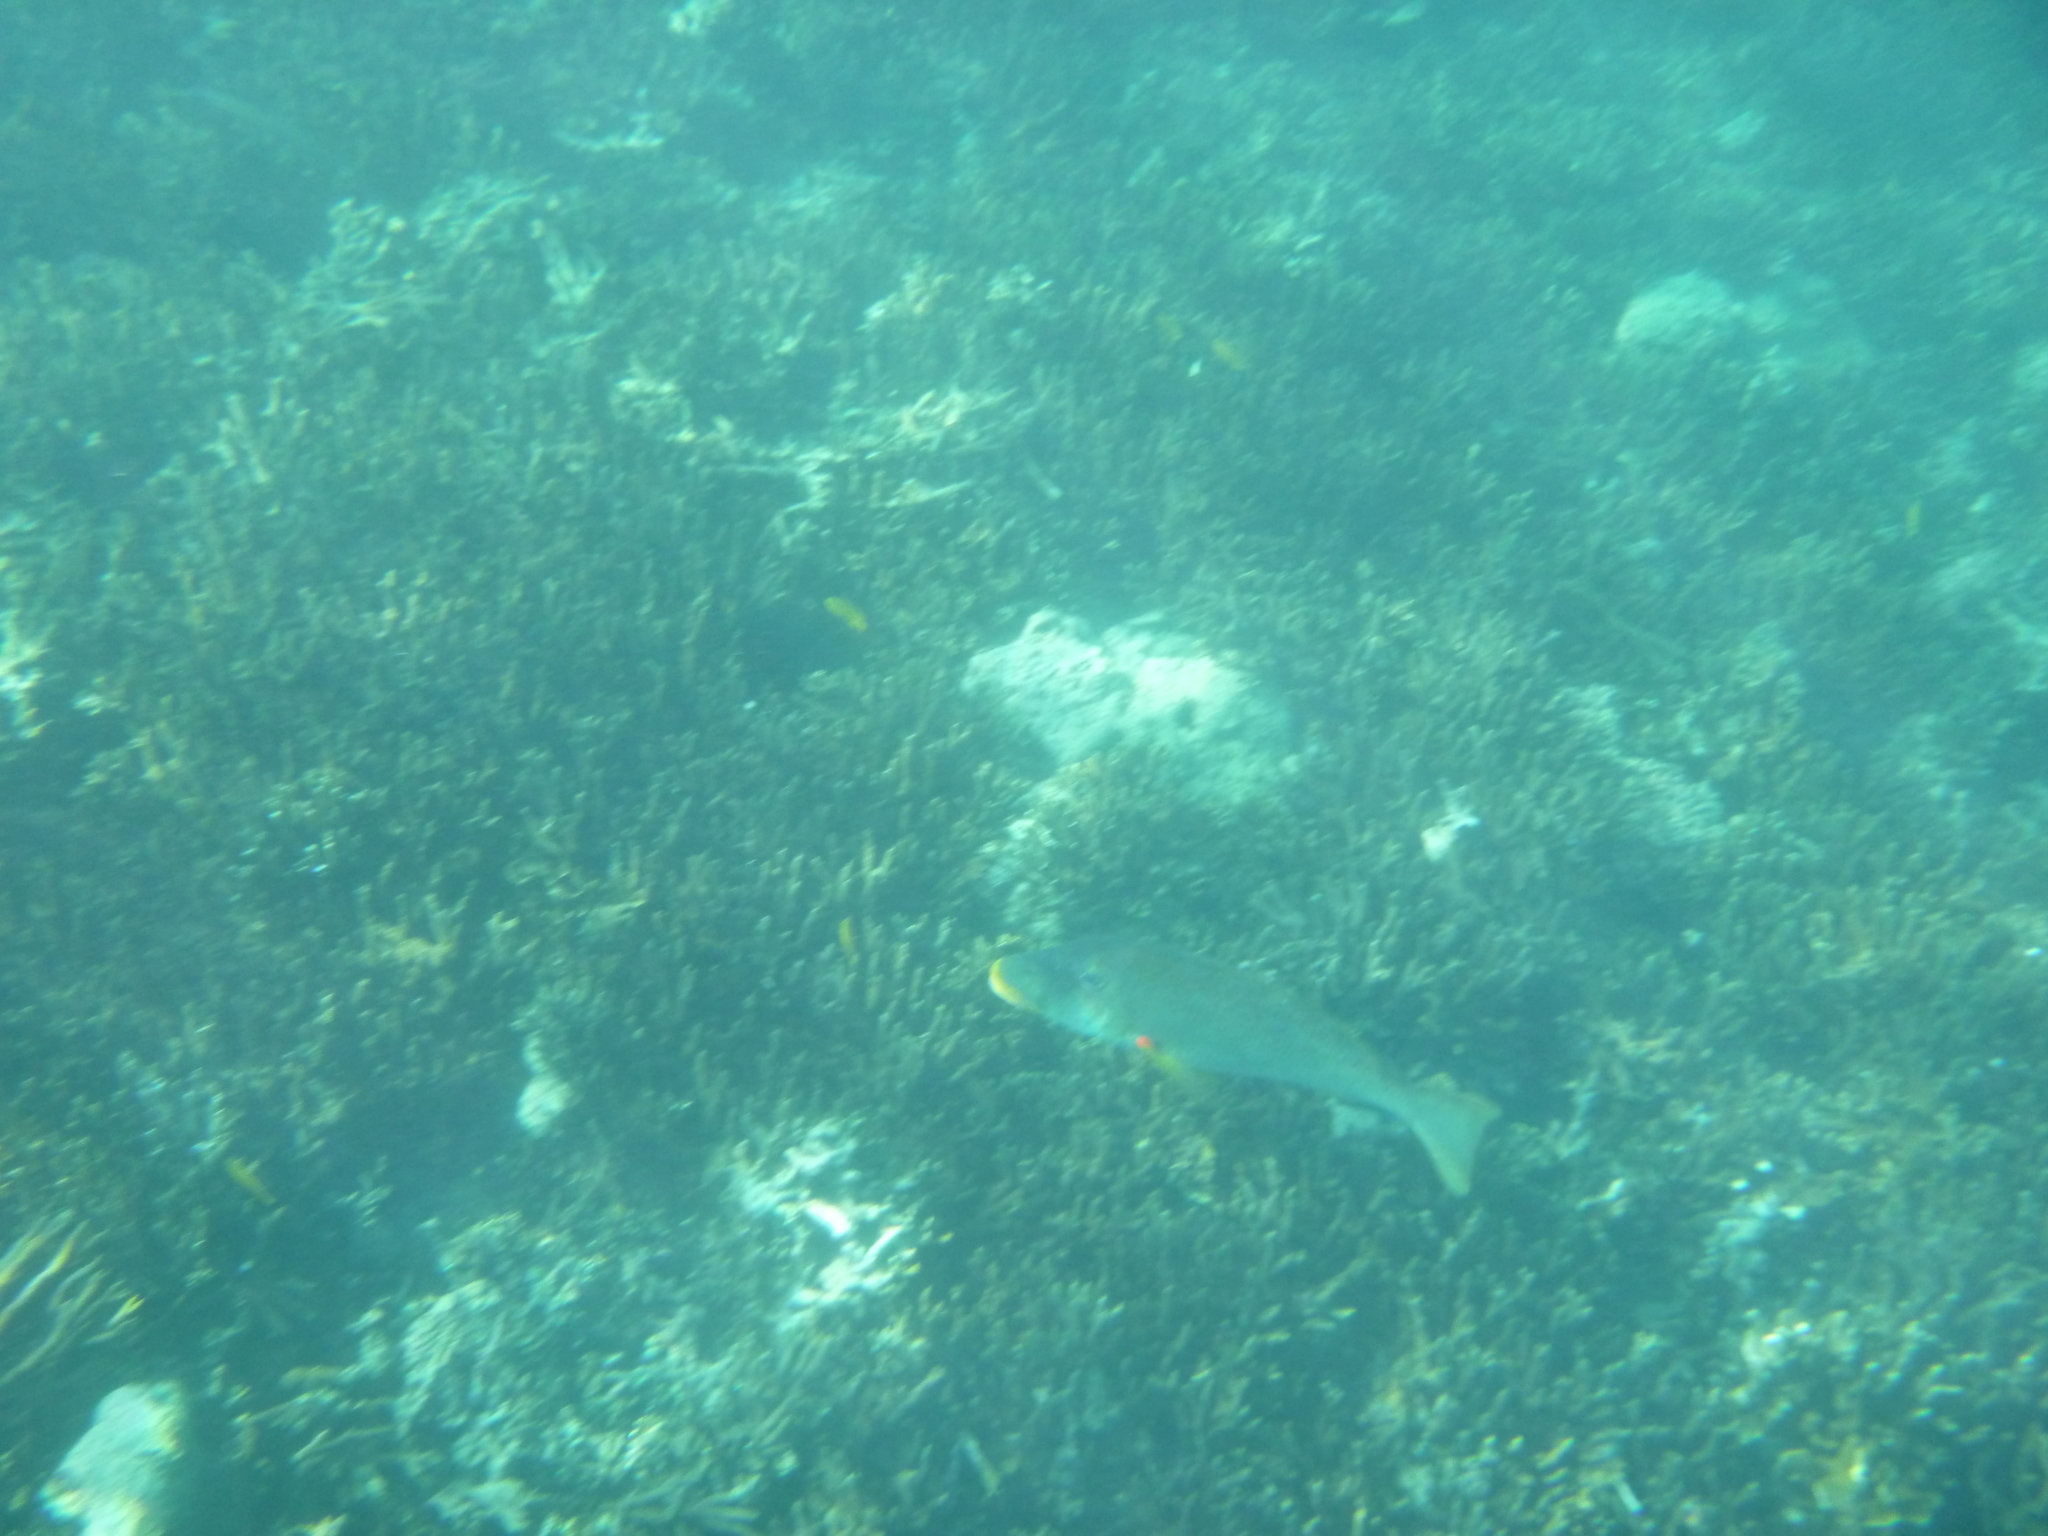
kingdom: Animalia
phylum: Chordata
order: Perciformes
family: Lethrinidae
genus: Lethrinus
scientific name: Lethrinus xanthochilus
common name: Yellowlip emperor
